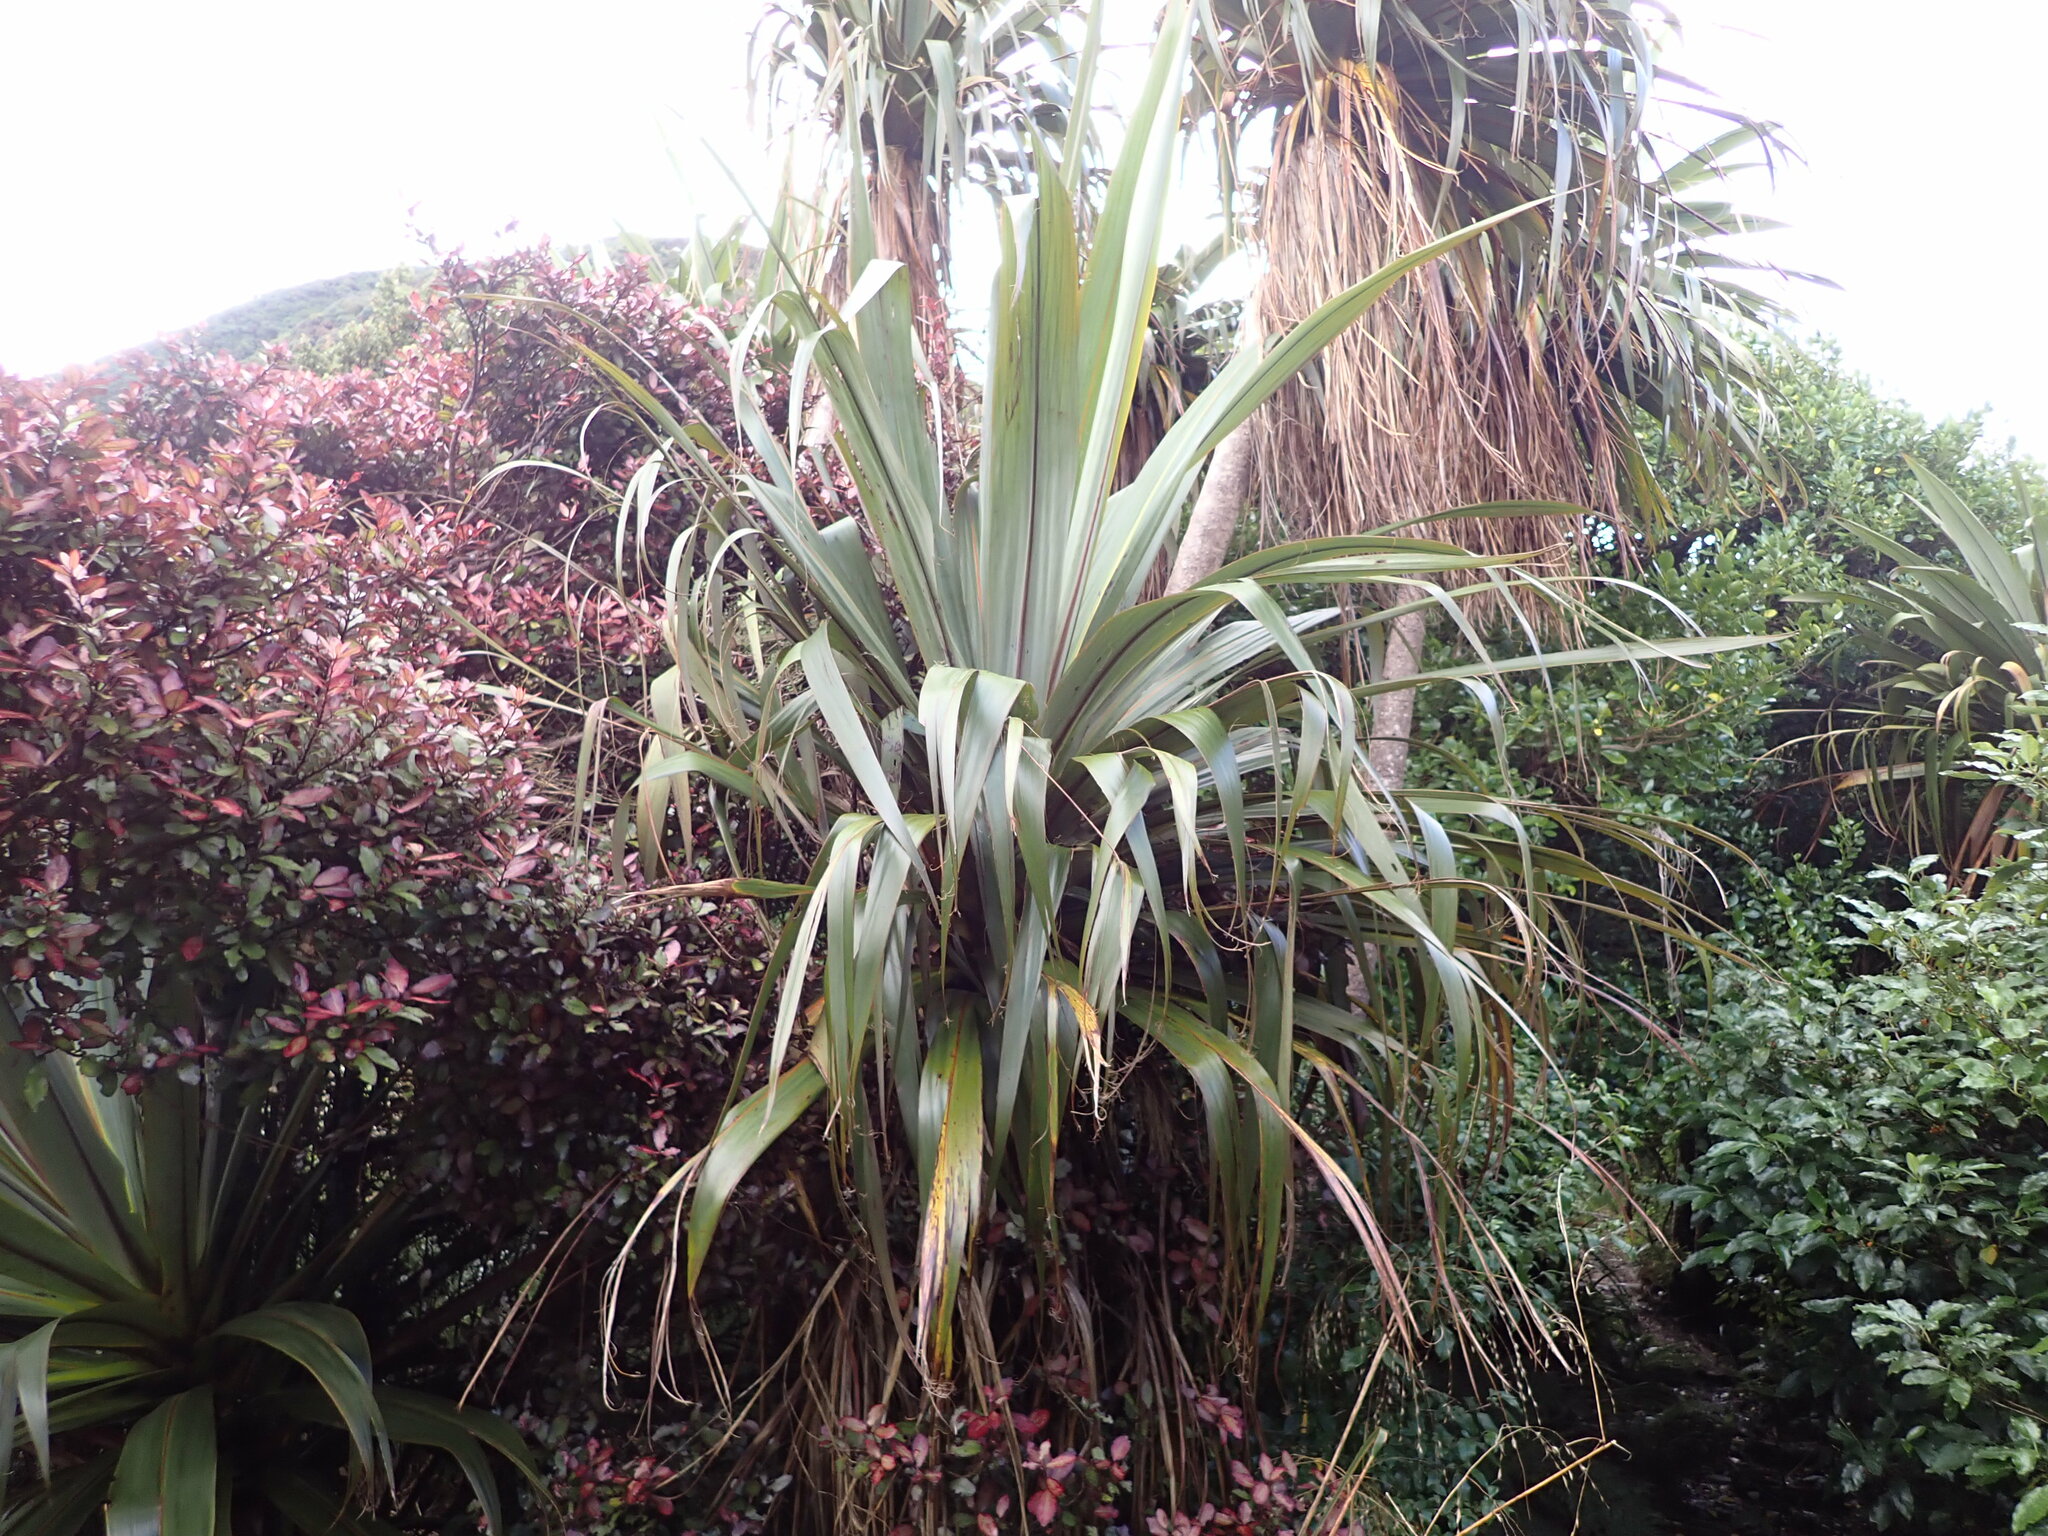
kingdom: Plantae
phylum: Tracheophyta
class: Liliopsida
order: Asparagales
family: Asparagaceae
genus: Cordyline
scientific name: Cordyline indivisa
